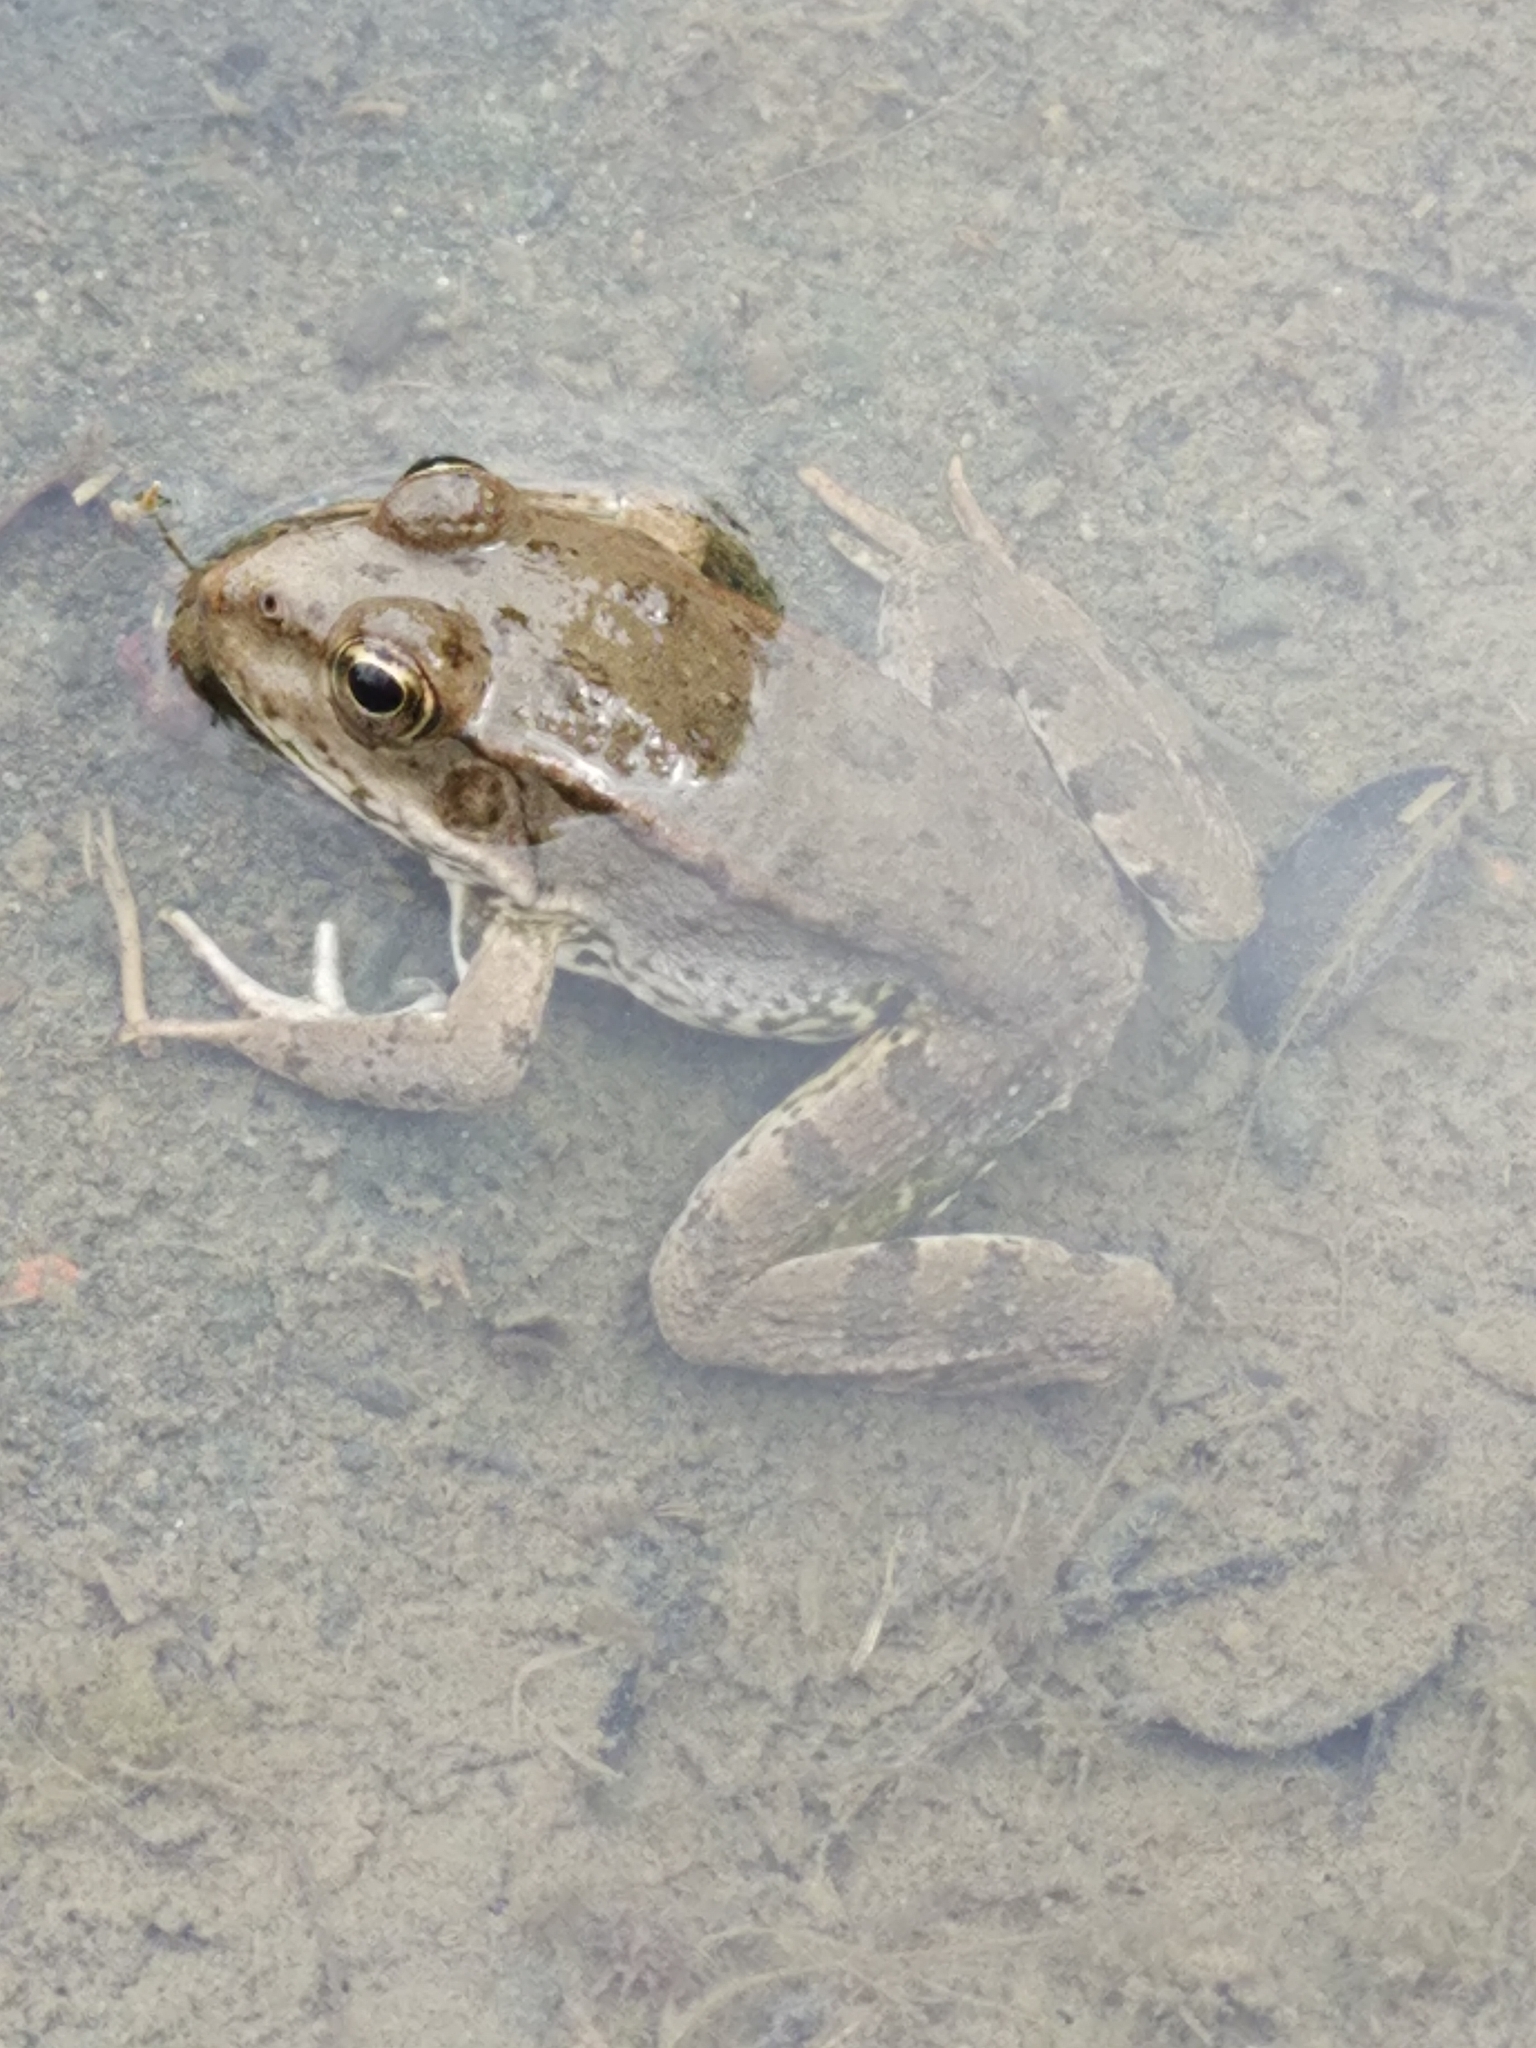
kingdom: Animalia
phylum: Chordata
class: Amphibia
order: Anura
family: Ranidae
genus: Pelophylax
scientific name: Pelophylax ridibundus
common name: Marsh frog
